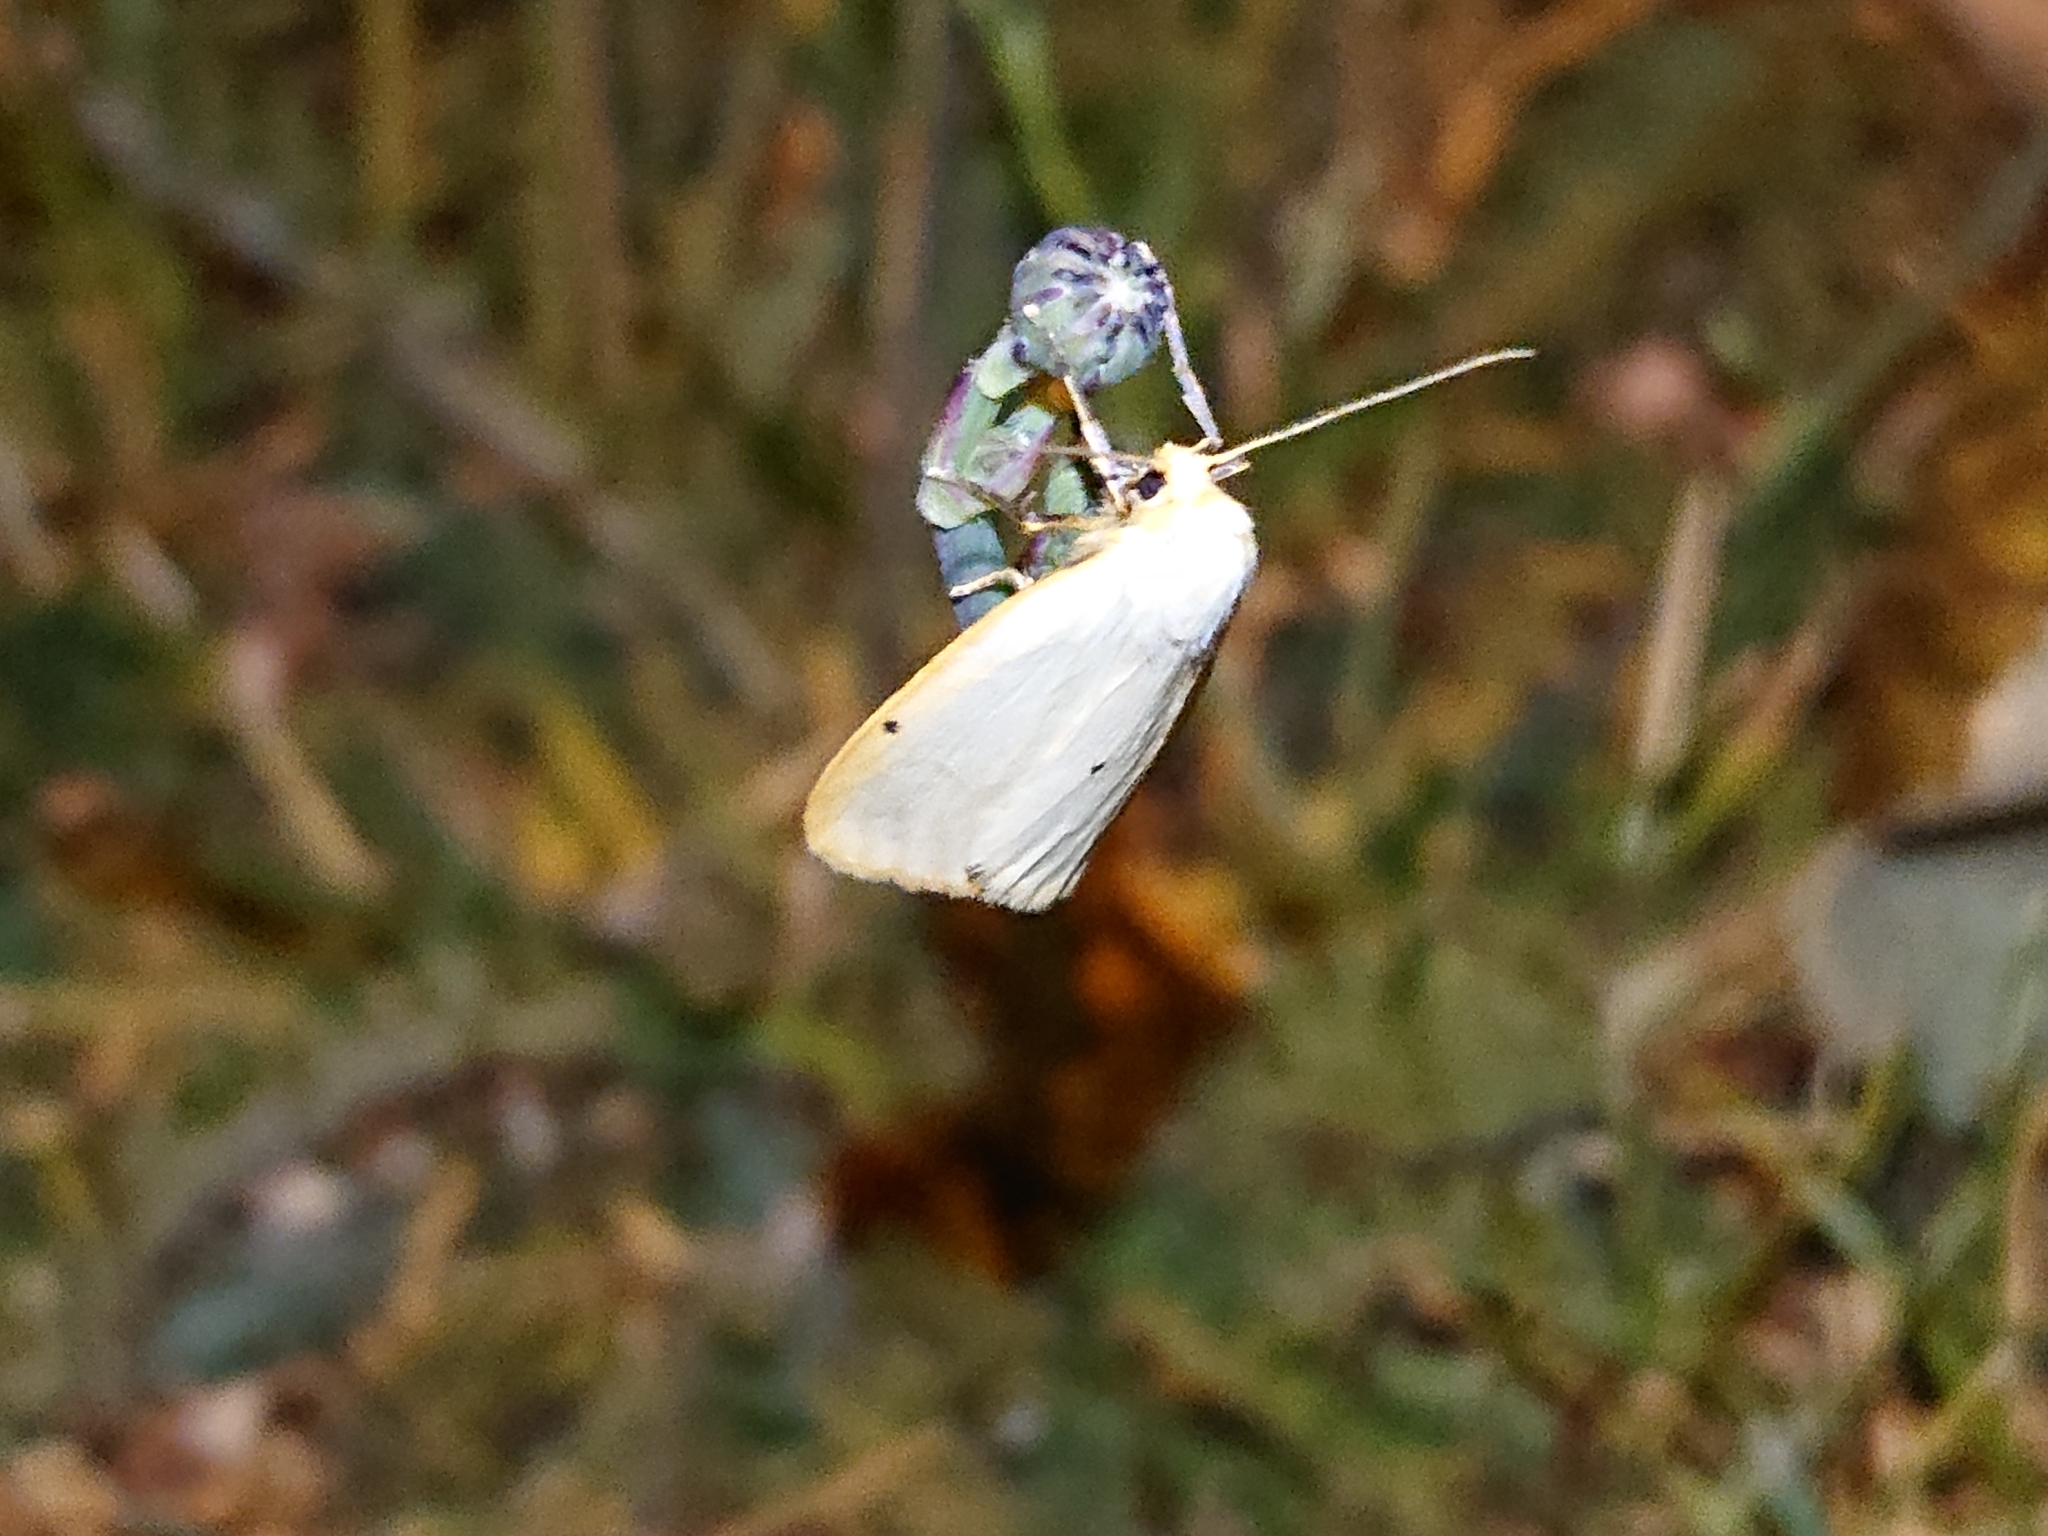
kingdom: Animalia
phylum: Arthropoda
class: Insecta
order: Lepidoptera
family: Erebidae
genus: Cybosia
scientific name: Cybosia mesomella
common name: Four-dotted footman
